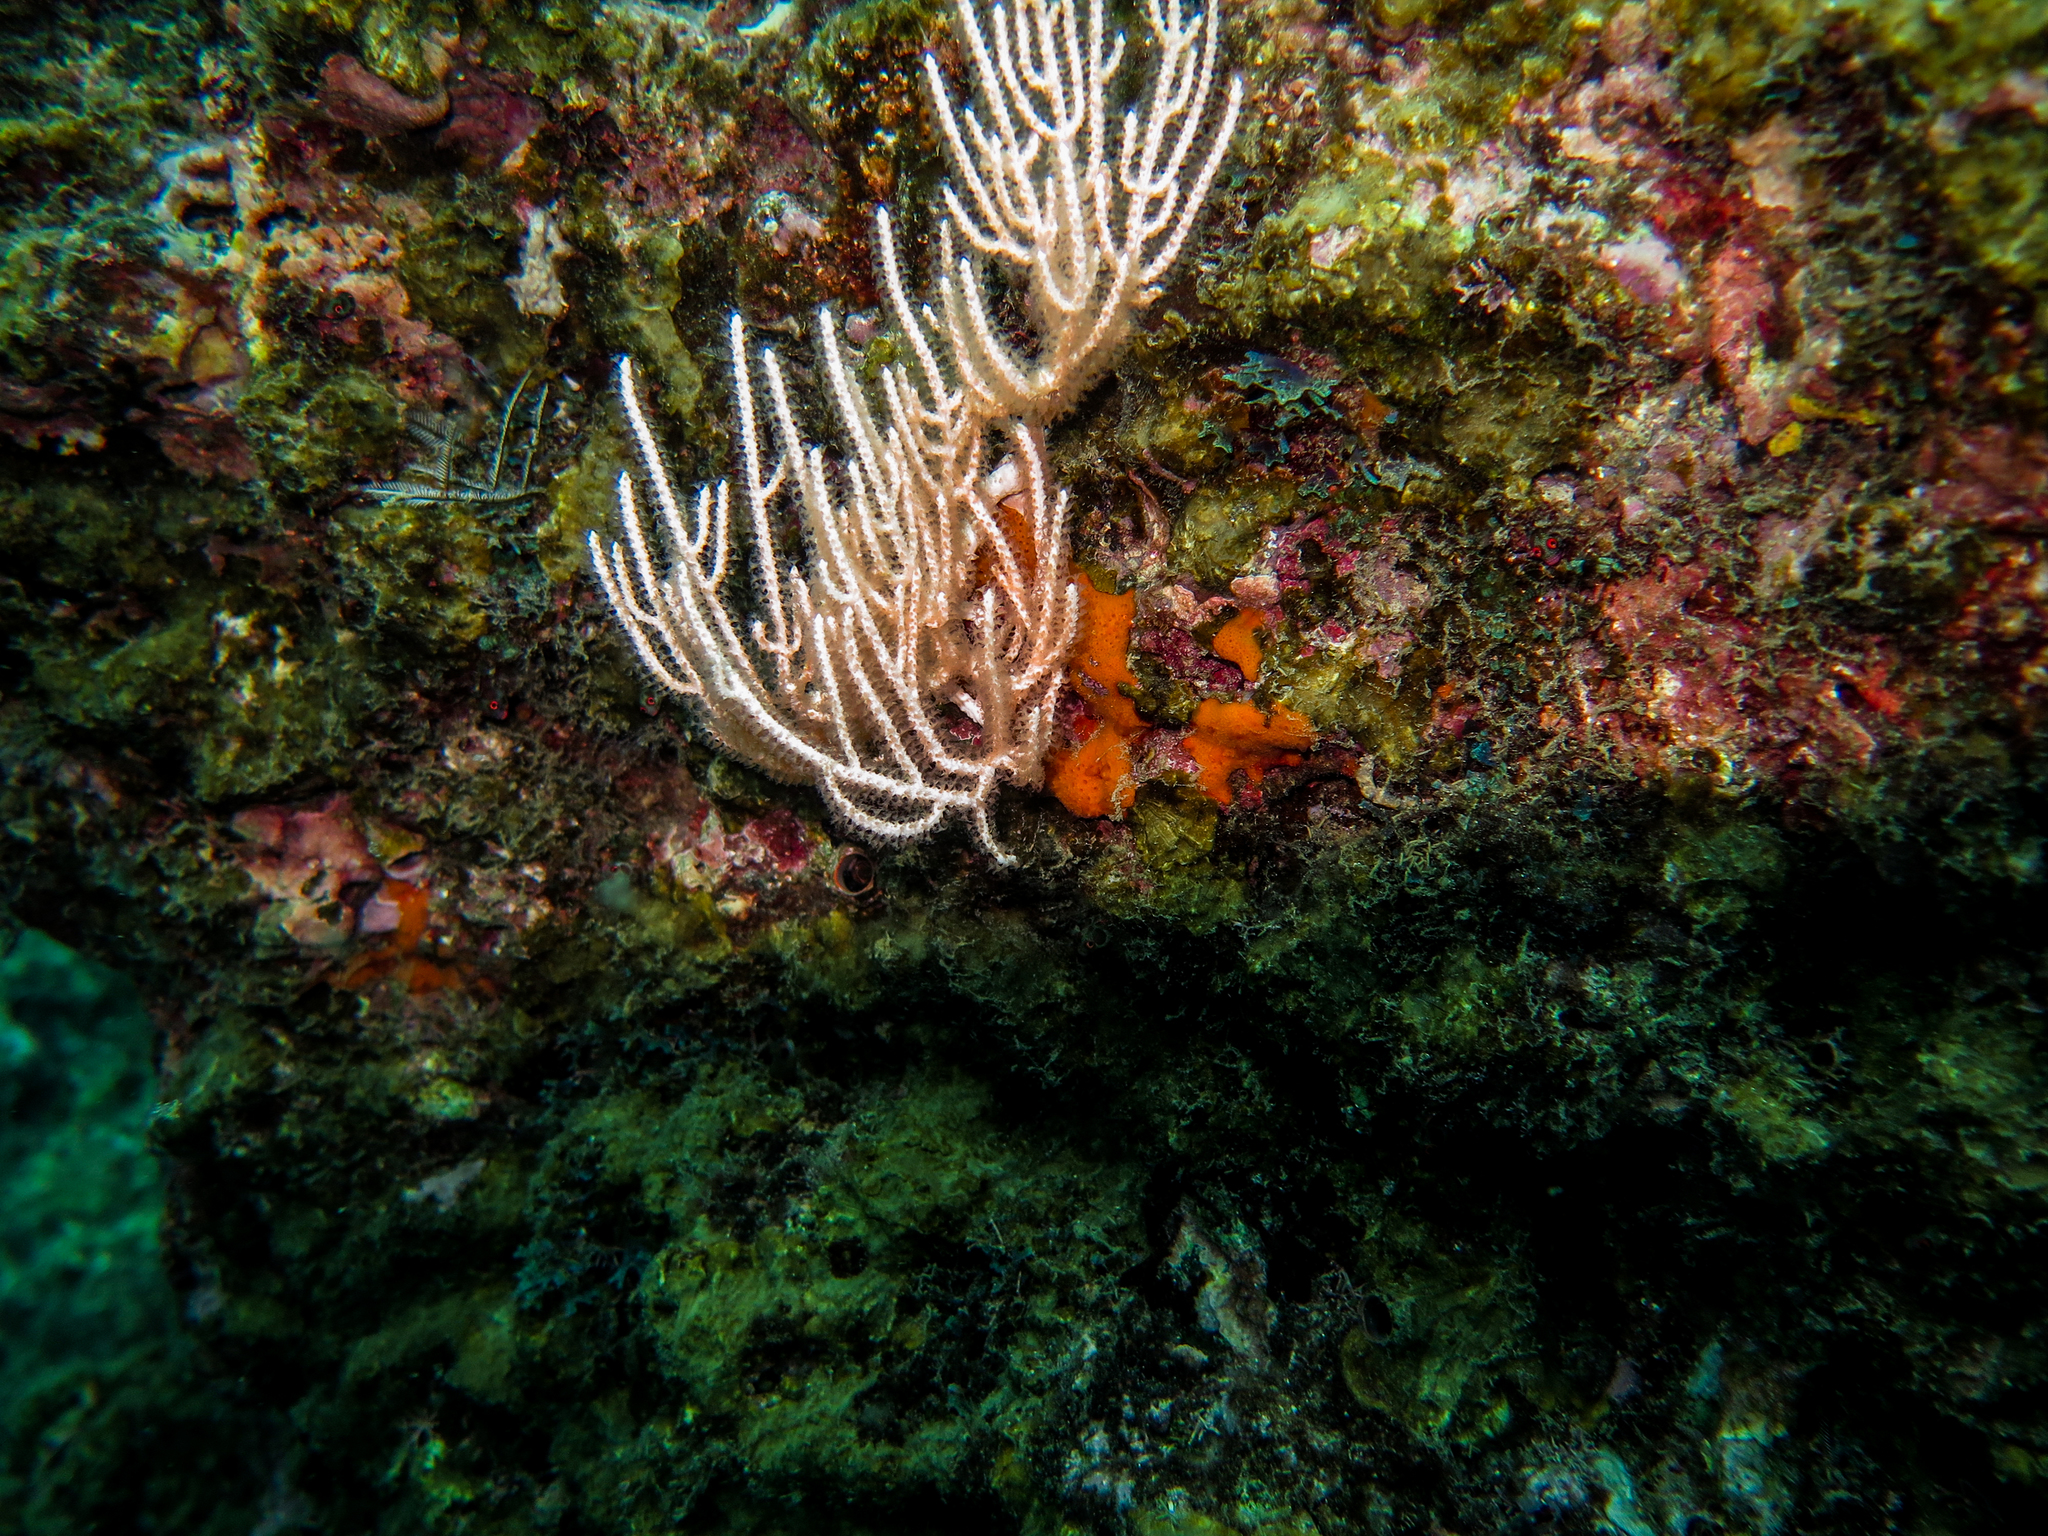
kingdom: Animalia
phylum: Cnidaria
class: Anthozoa
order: Malacalcyonacea
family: Gorgoniidae
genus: Leptogorgia
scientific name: Leptogorgia alba
